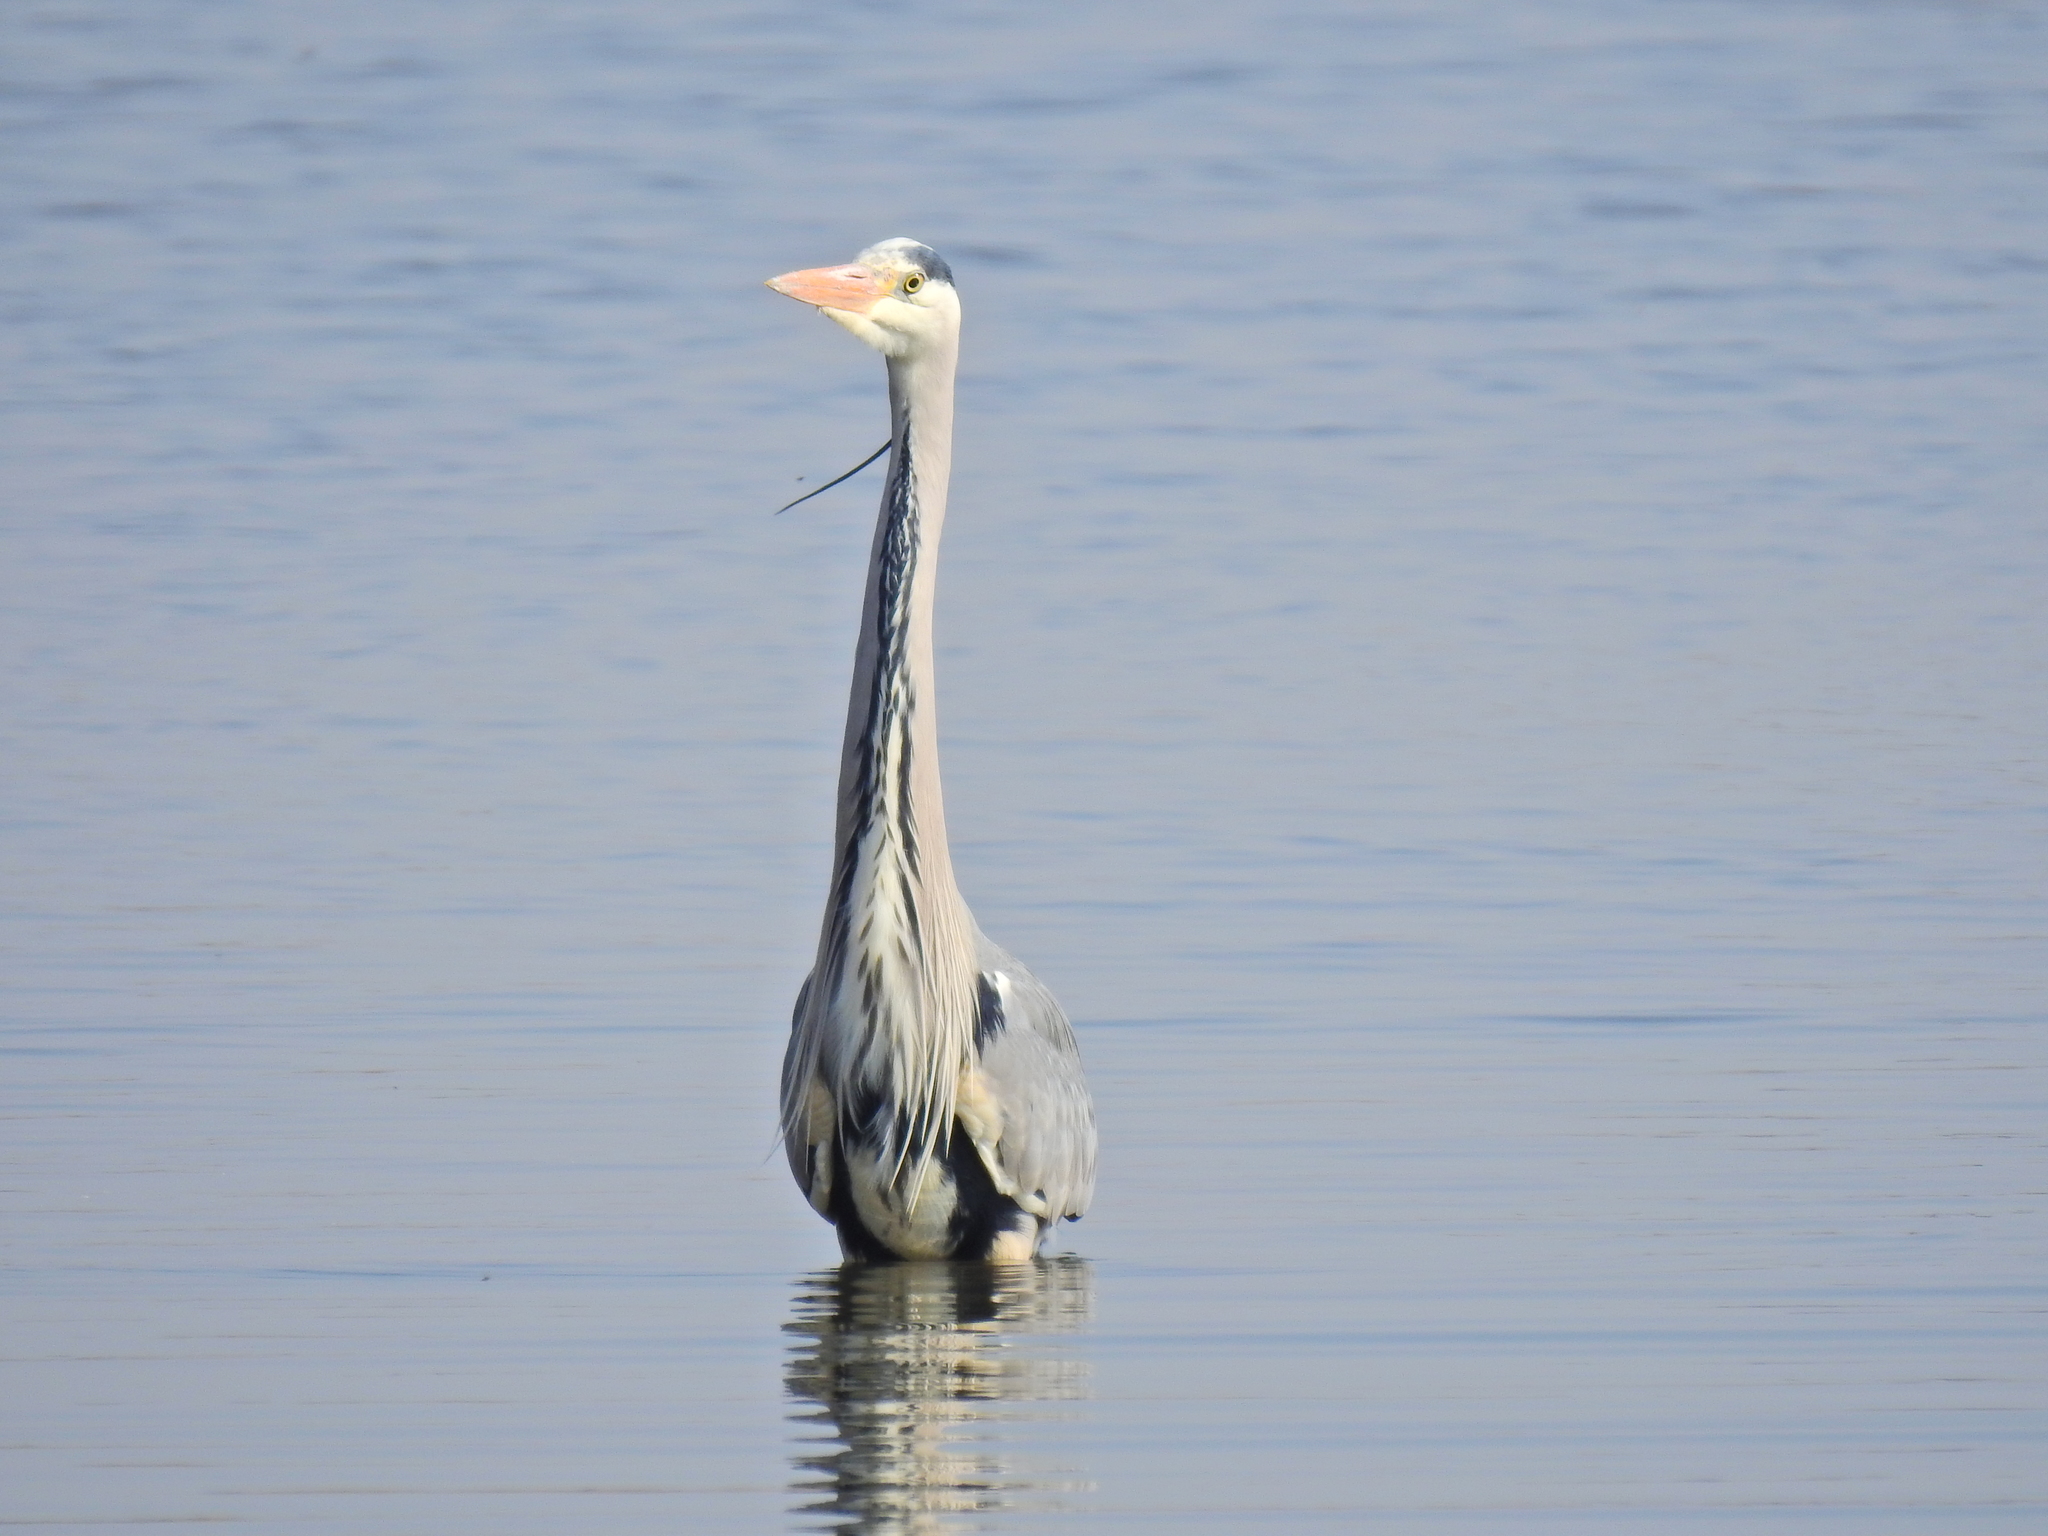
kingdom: Animalia
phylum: Chordata
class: Aves
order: Pelecaniformes
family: Ardeidae
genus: Ardea
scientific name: Ardea cinerea
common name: Grey heron
